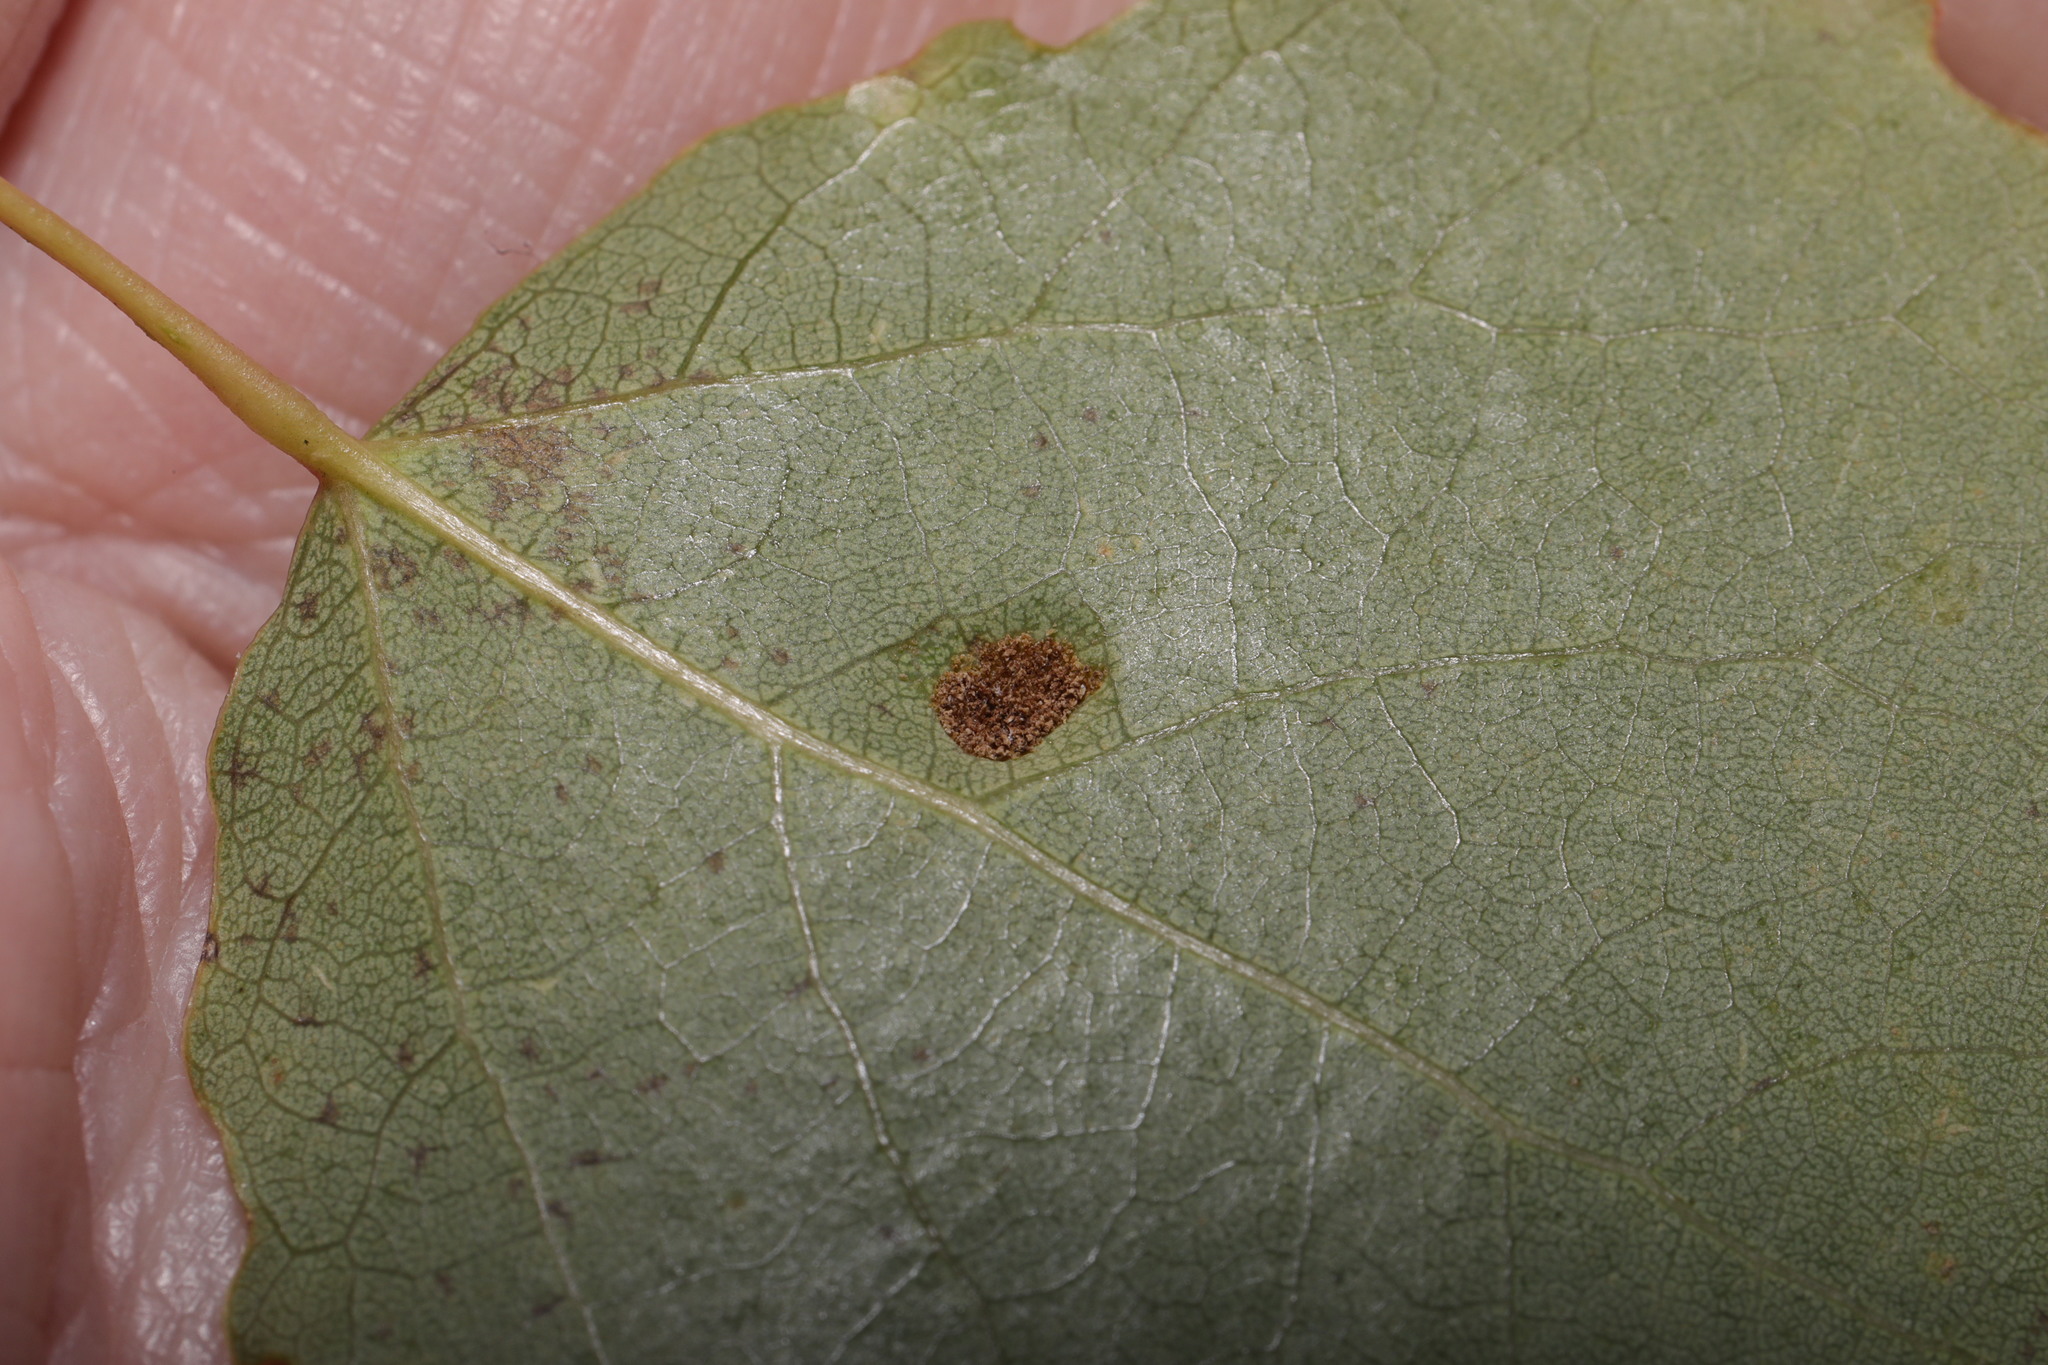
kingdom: Animalia
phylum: Arthropoda
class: Arachnida
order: Trombidiformes
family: Eriophyidae
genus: Phyllocoptes
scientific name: Phyllocoptes populi
